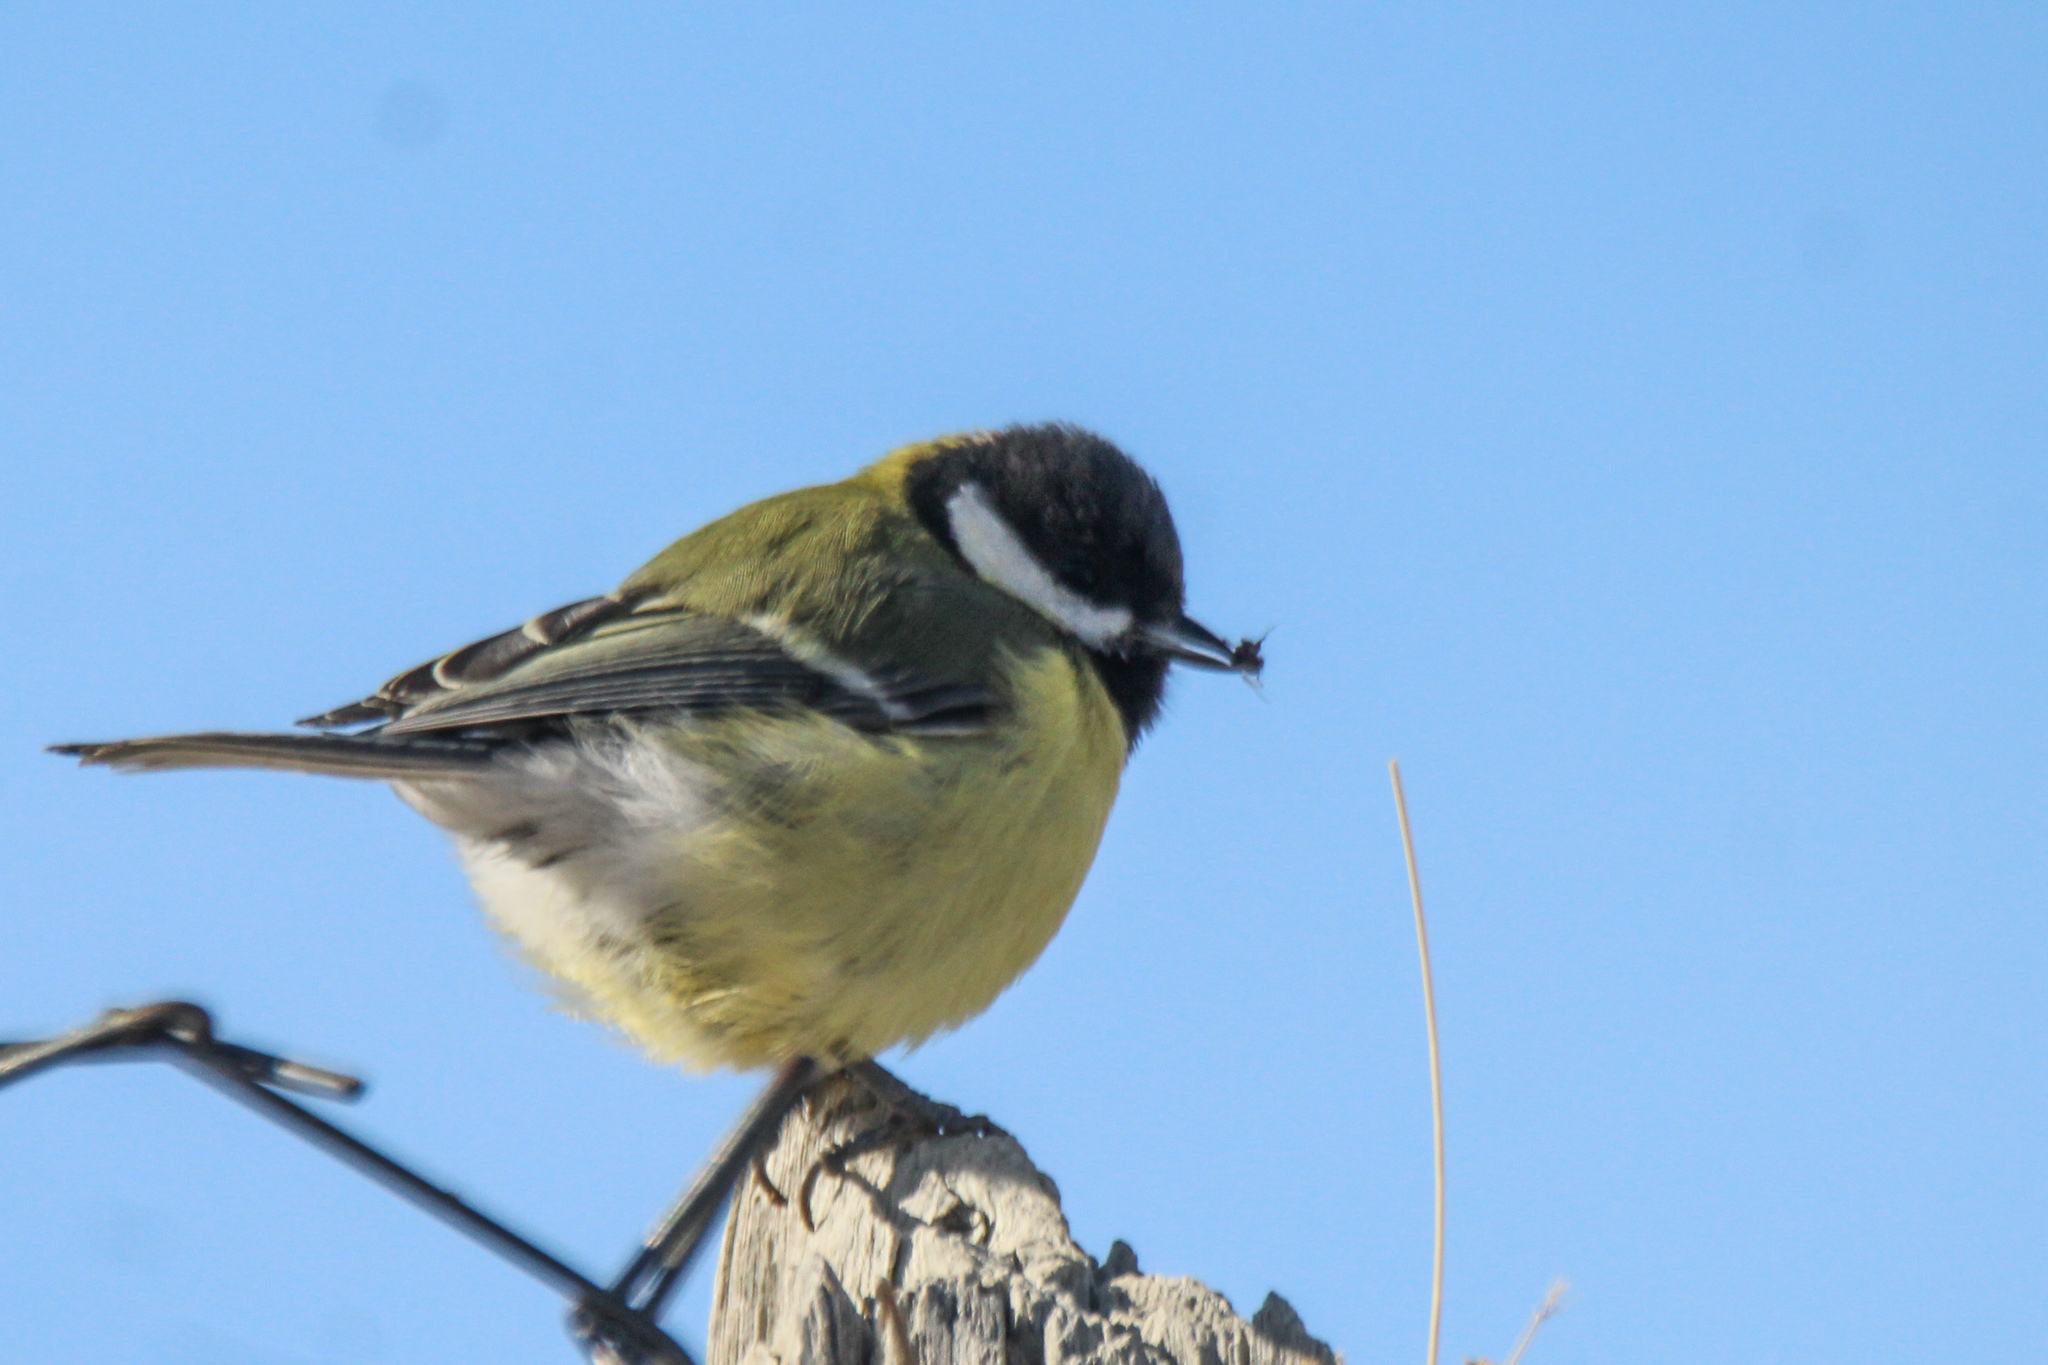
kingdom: Animalia
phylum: Chordata
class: Aves
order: Passeriformes
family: Paridae
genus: Parus
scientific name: Parus major
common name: Great tit
